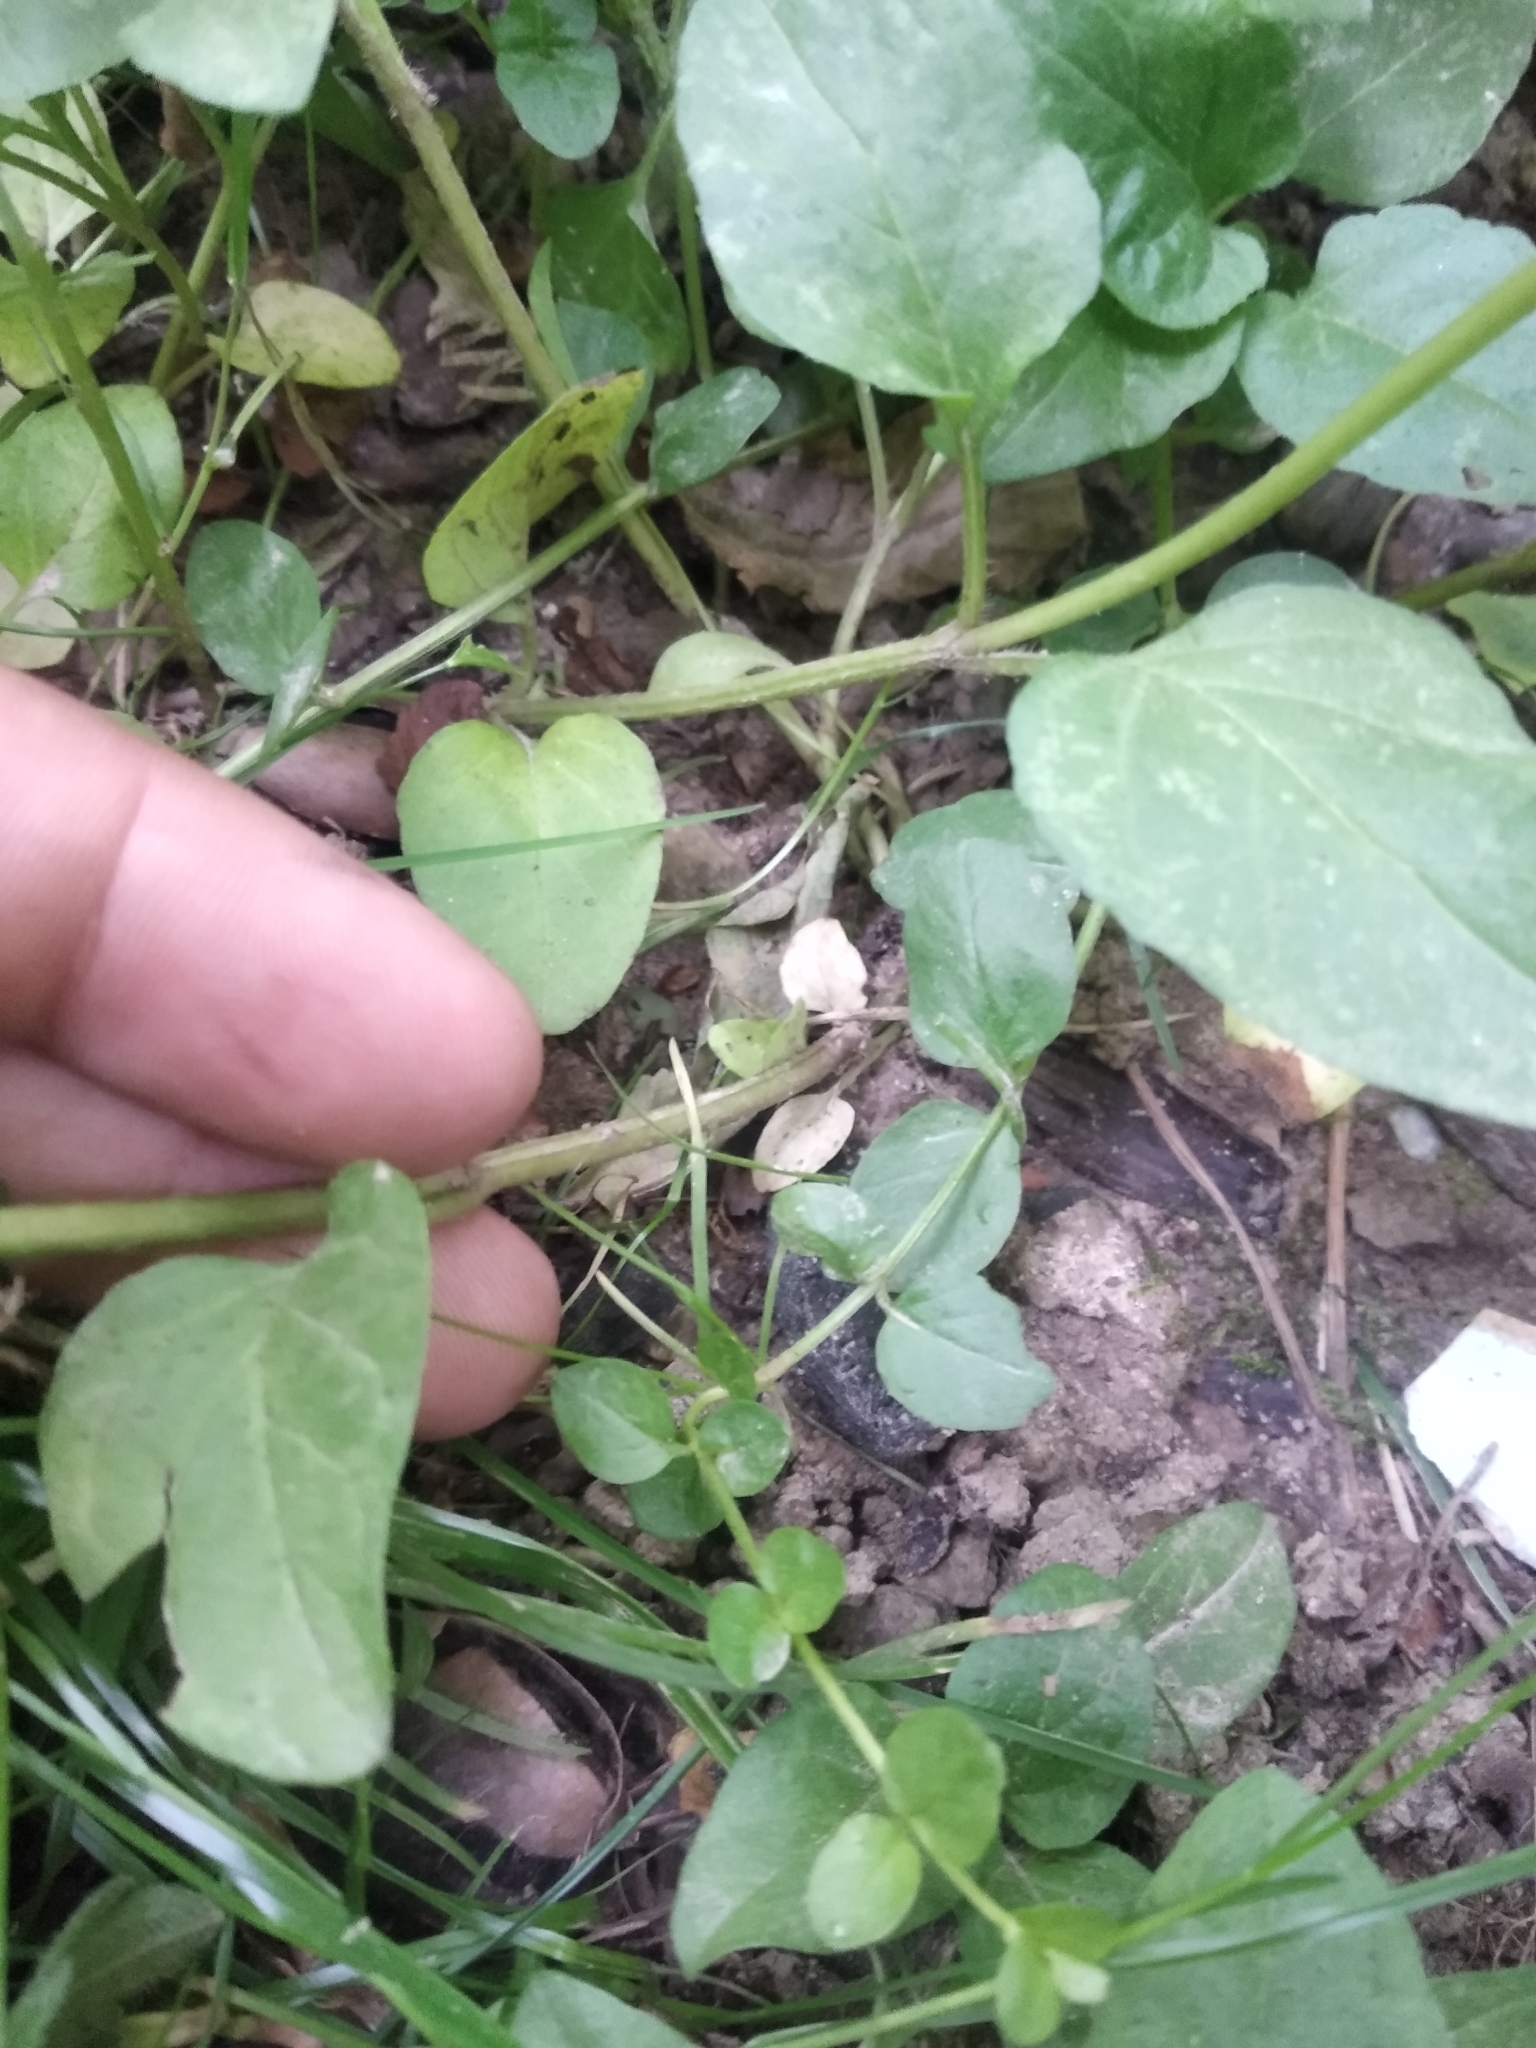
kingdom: Plantae
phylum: Tracheophyta
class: Magnoliopsida
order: Lamiales
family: Lamiaceae
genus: Prunella
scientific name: Prunella vulgaris
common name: Heal-all
